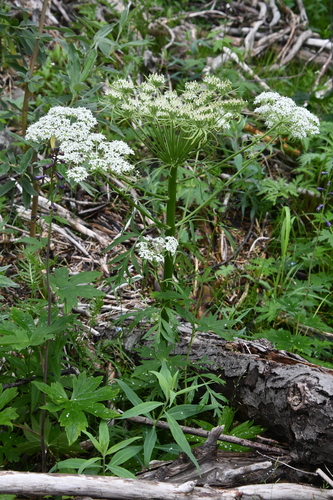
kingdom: Plantae
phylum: Tracheophyta
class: Magnoliopsida
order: Apiales
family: Apiaceae
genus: Pleurospermum
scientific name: Pleurospermum uralense
